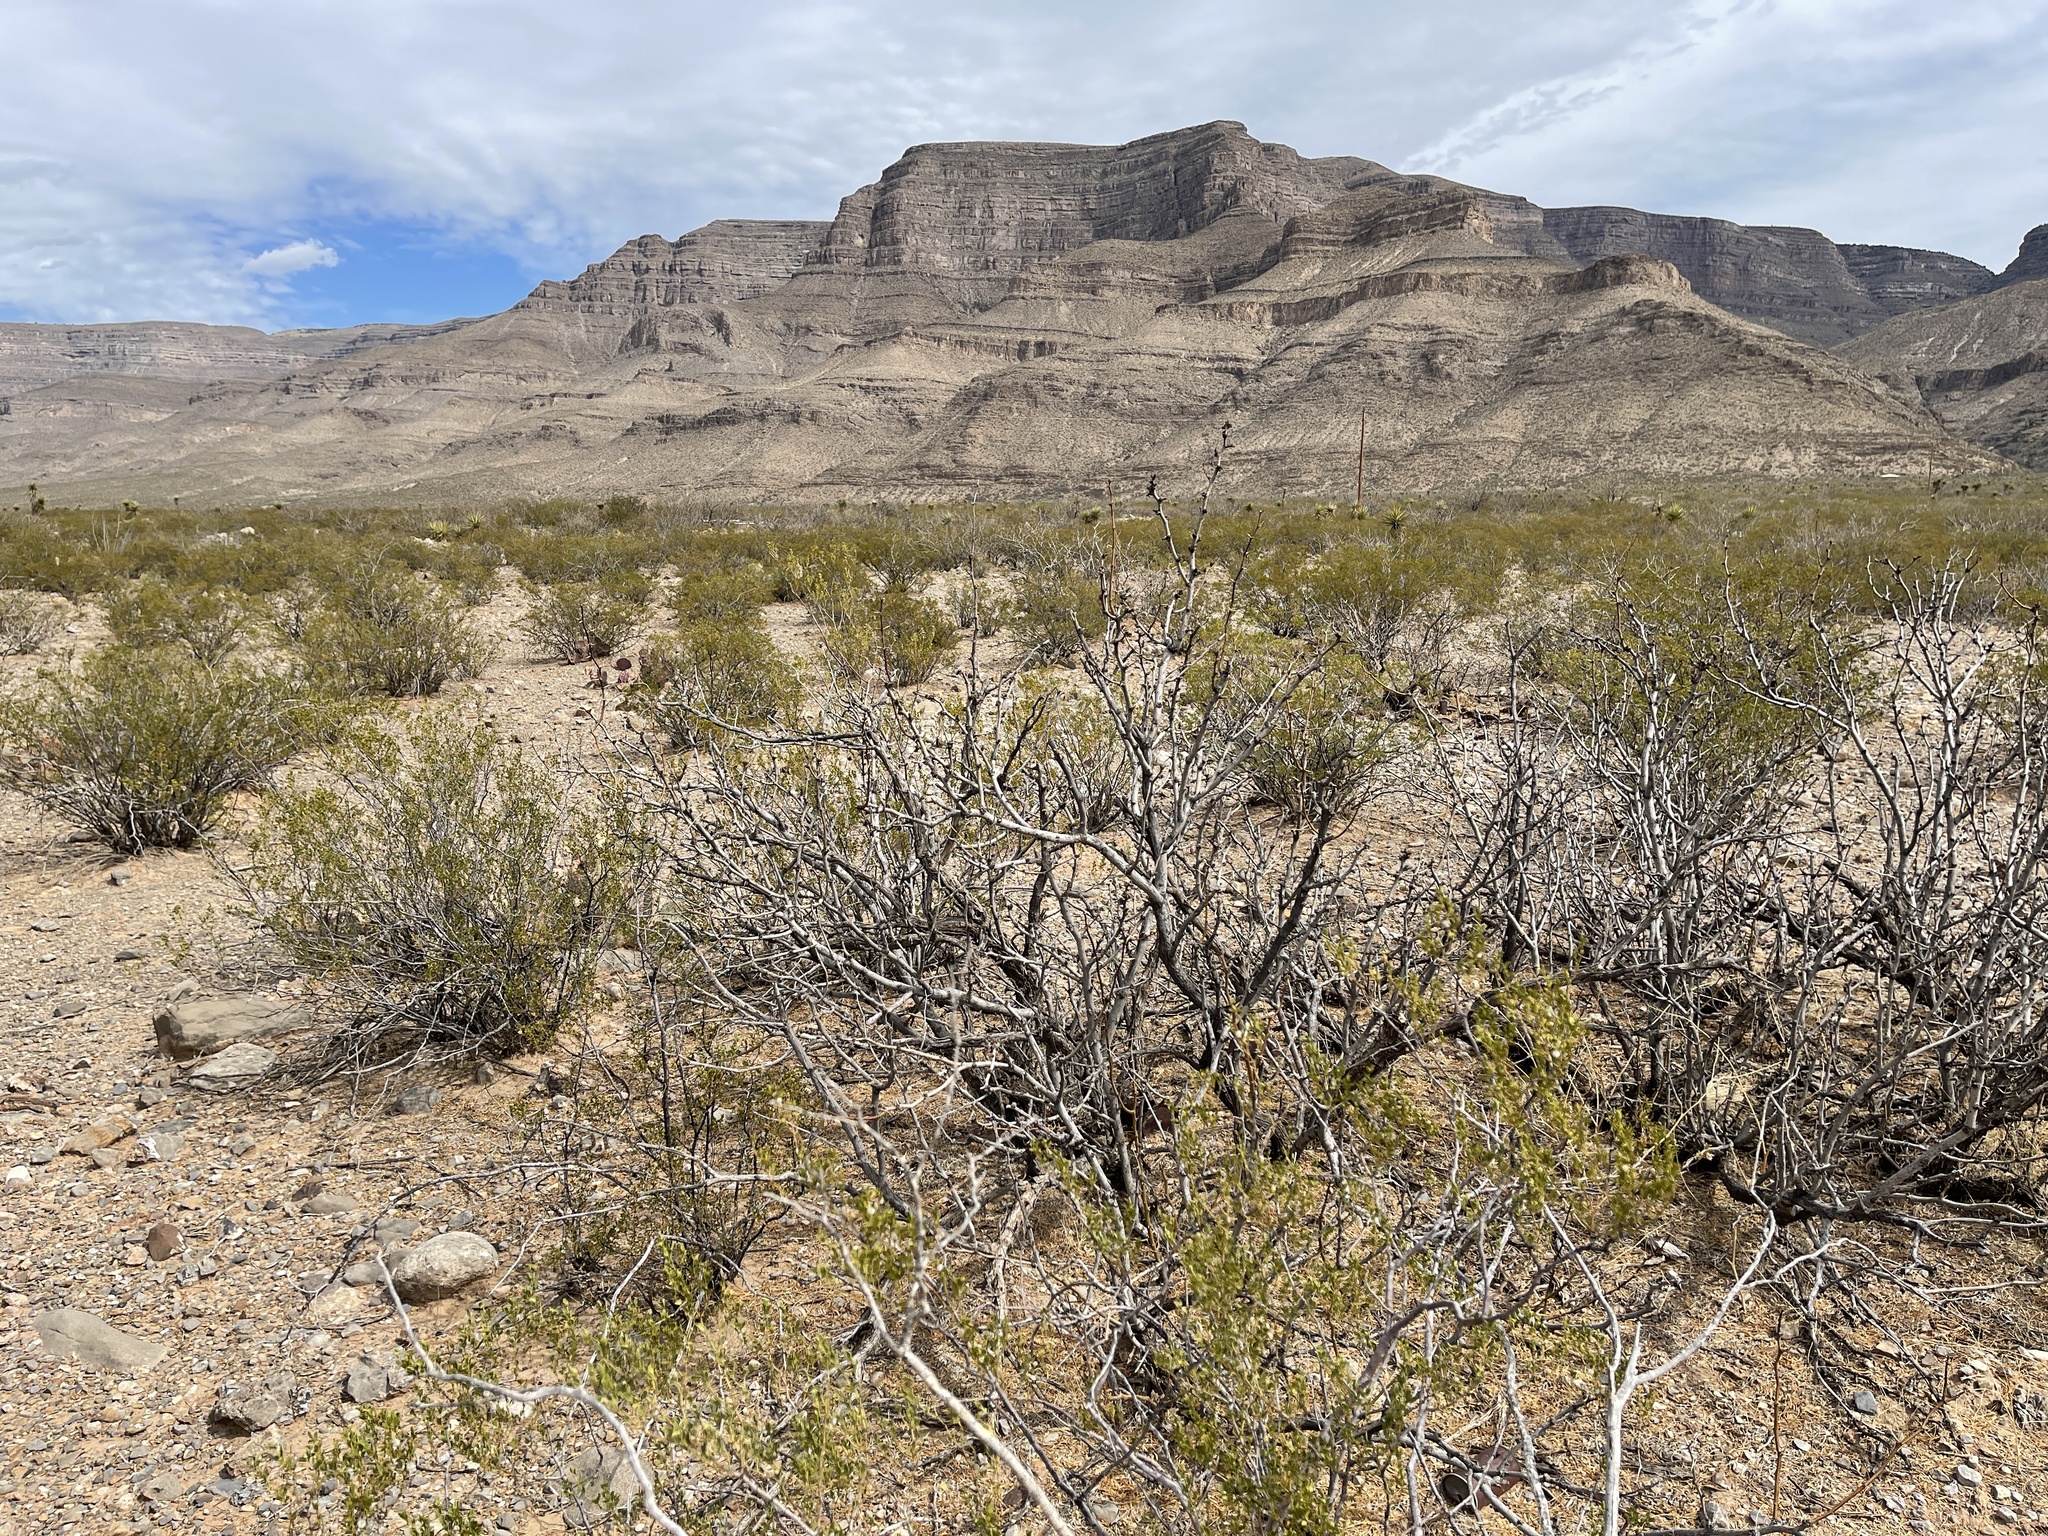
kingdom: Plantae
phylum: Tracheophyta
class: Magnoliopsida
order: Fabales
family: Fabaceae
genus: Prosopis
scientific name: Prosopis glandulosa
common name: Honey mesquite
